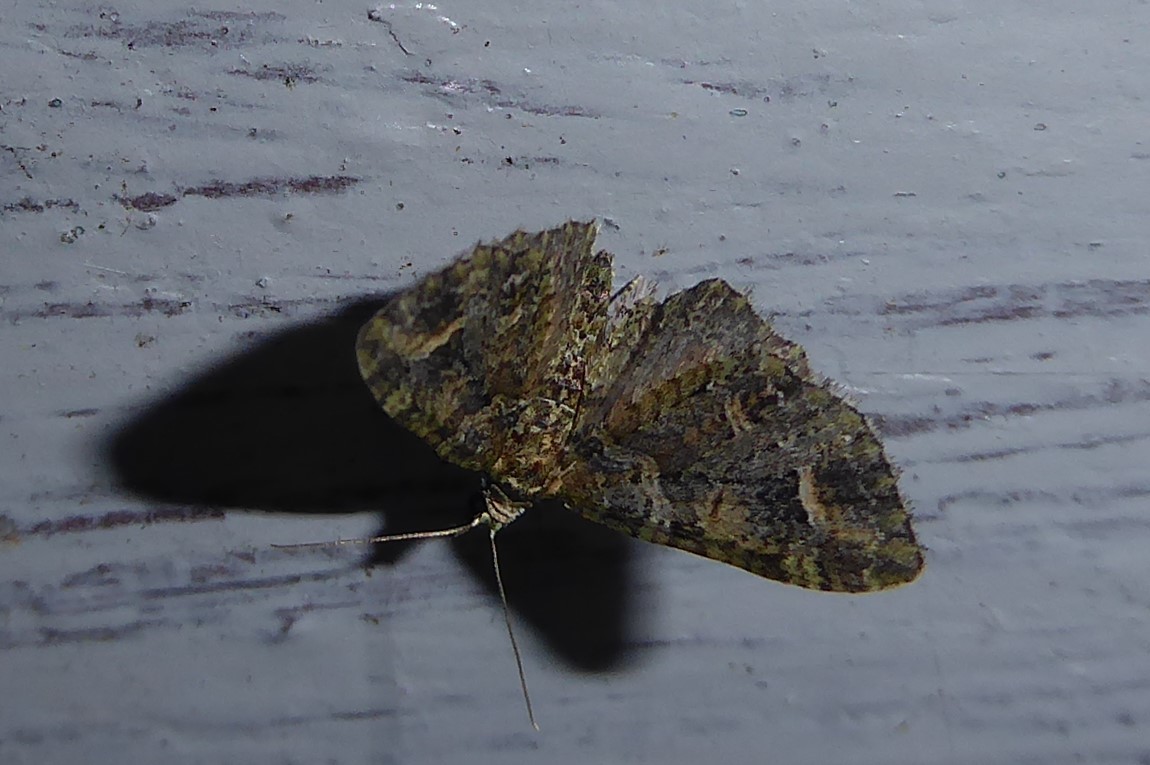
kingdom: Animalia
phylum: Arthropoda
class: Insecta
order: Lepidoptera
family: Geometridae
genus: Idaea
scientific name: Idaea mutanda
